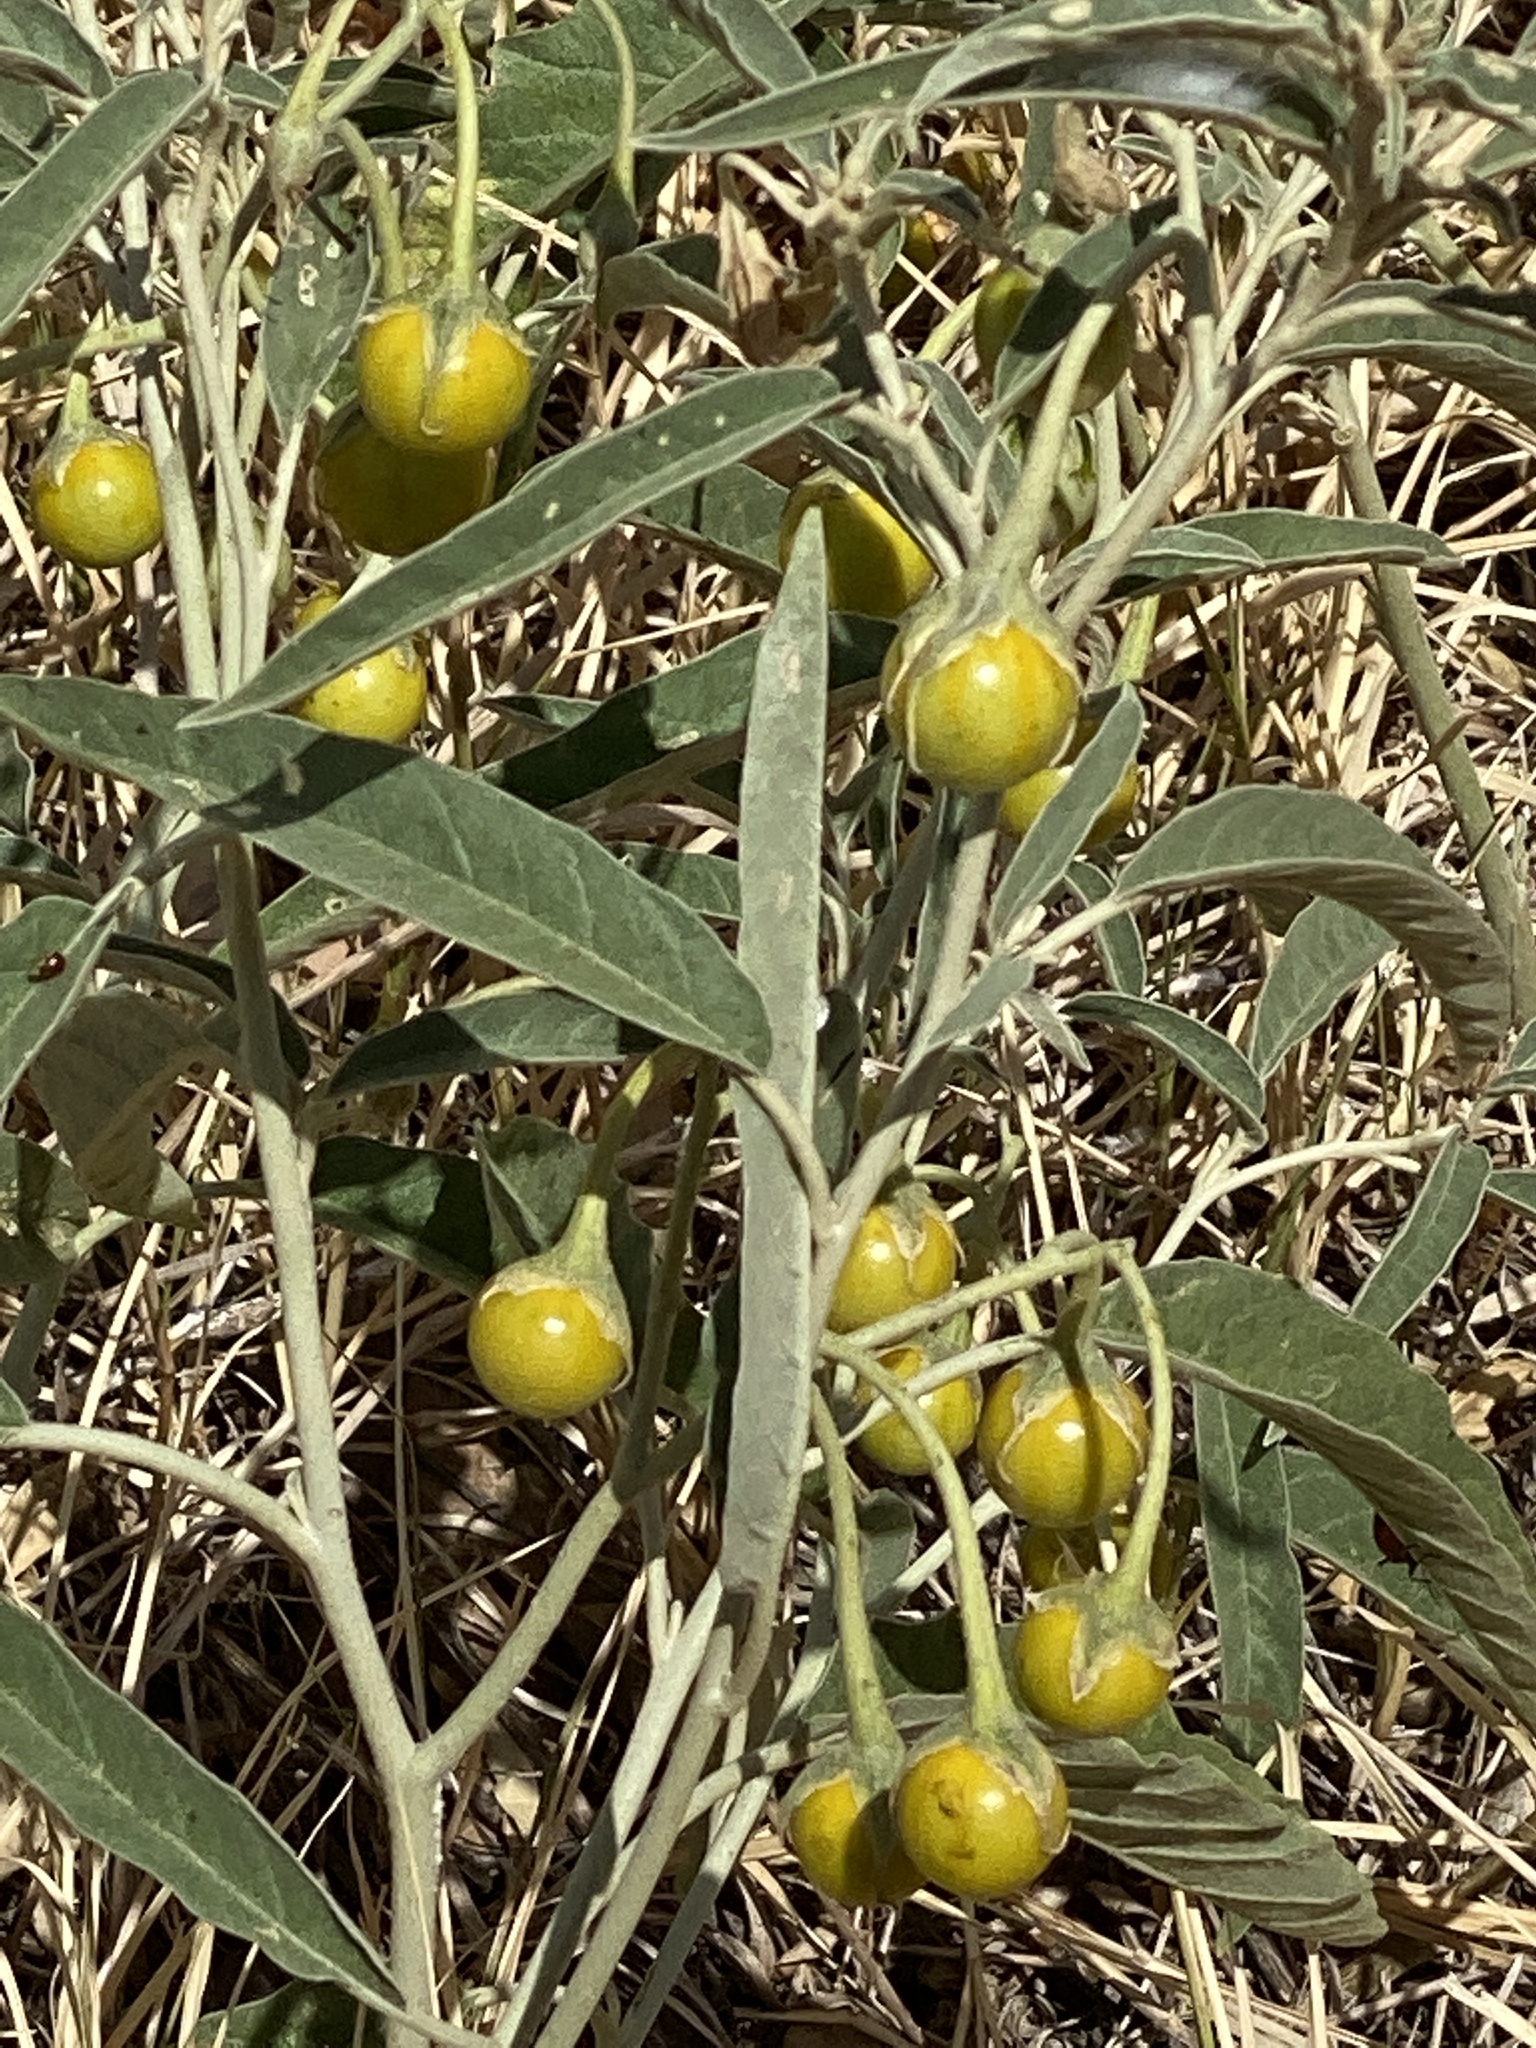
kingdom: Plantae
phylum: Tracheophyta
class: Magnoliopsida
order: Solanales
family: Solanaceae
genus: Solanum
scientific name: Solanum elaeagnifolium
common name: Silverleaf nightshade
